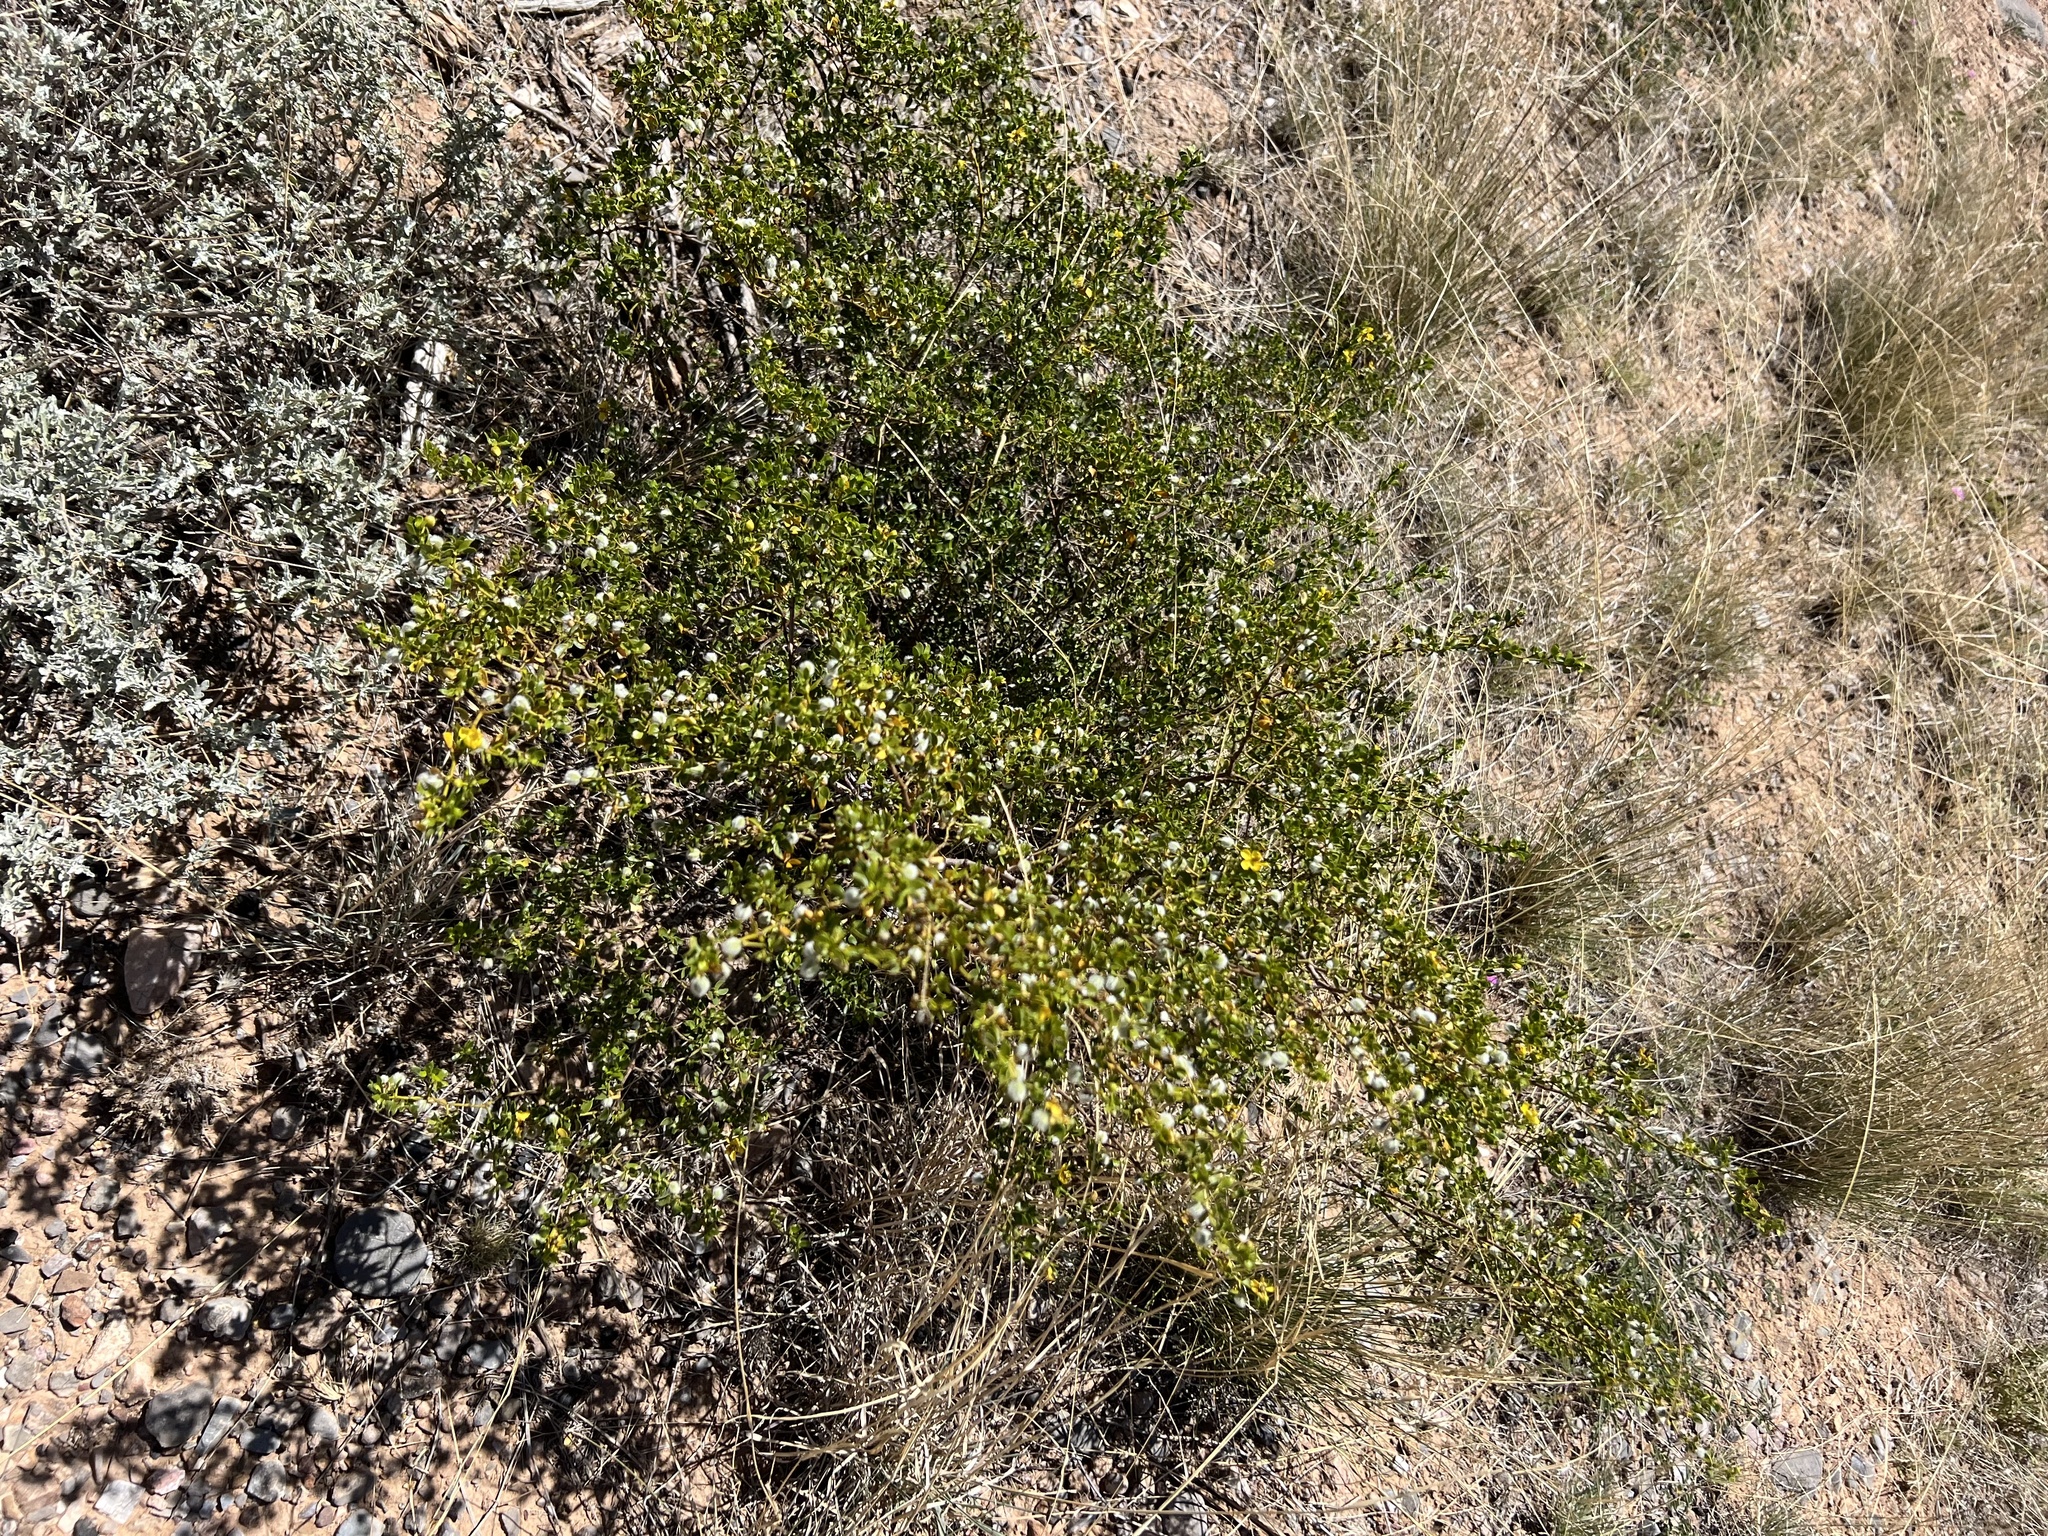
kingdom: Plantae
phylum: Tracheophyta
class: Magnoliopsida
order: Zygophyllales
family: Zygophyllaceae
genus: Larrea
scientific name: Larrea tridentata
